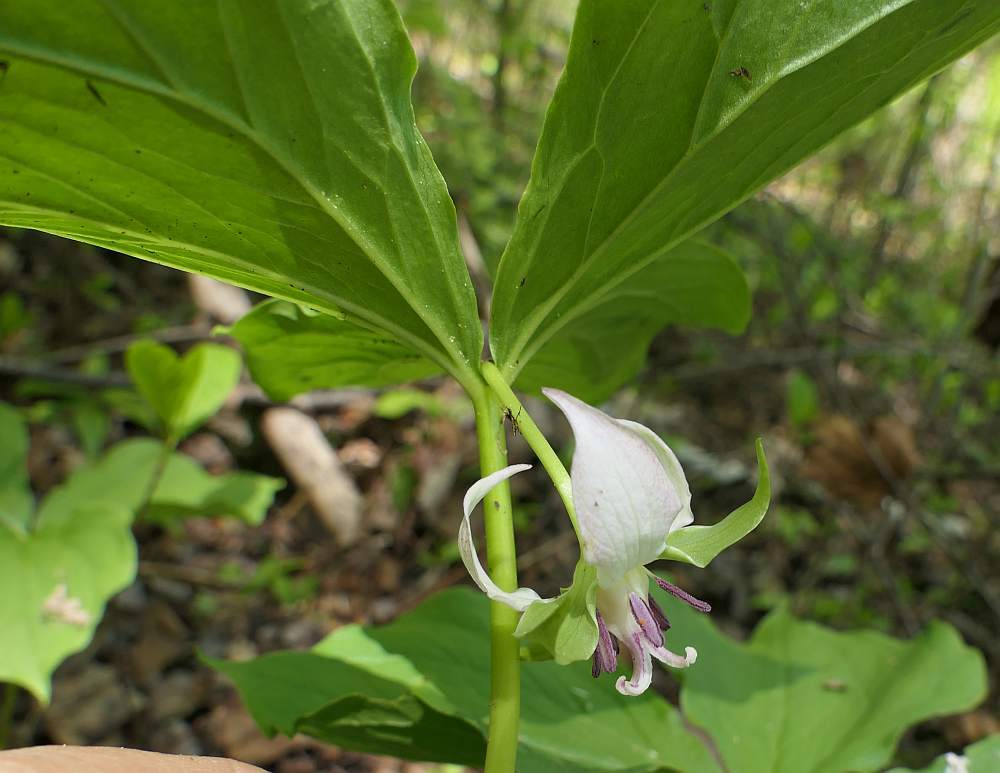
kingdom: Plantae
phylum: Tracheophyta
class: Liliopsida
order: Liliales
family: Melanthiaceae
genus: Trillium
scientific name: Trillium cernuum
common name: Nodding trillium
